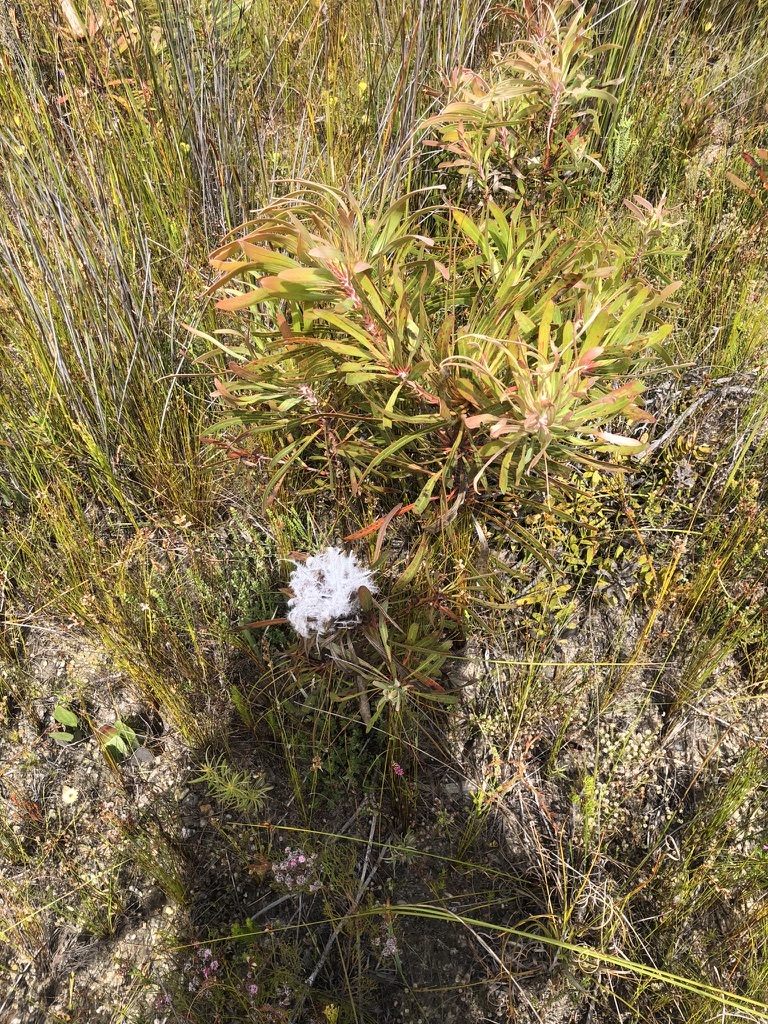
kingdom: Plantae
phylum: Tracheophyta
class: Magnoliopsida
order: Proteales
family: Proteaceae
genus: Protea
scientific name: Protea longifolia
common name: Long-leaf sugarbush
